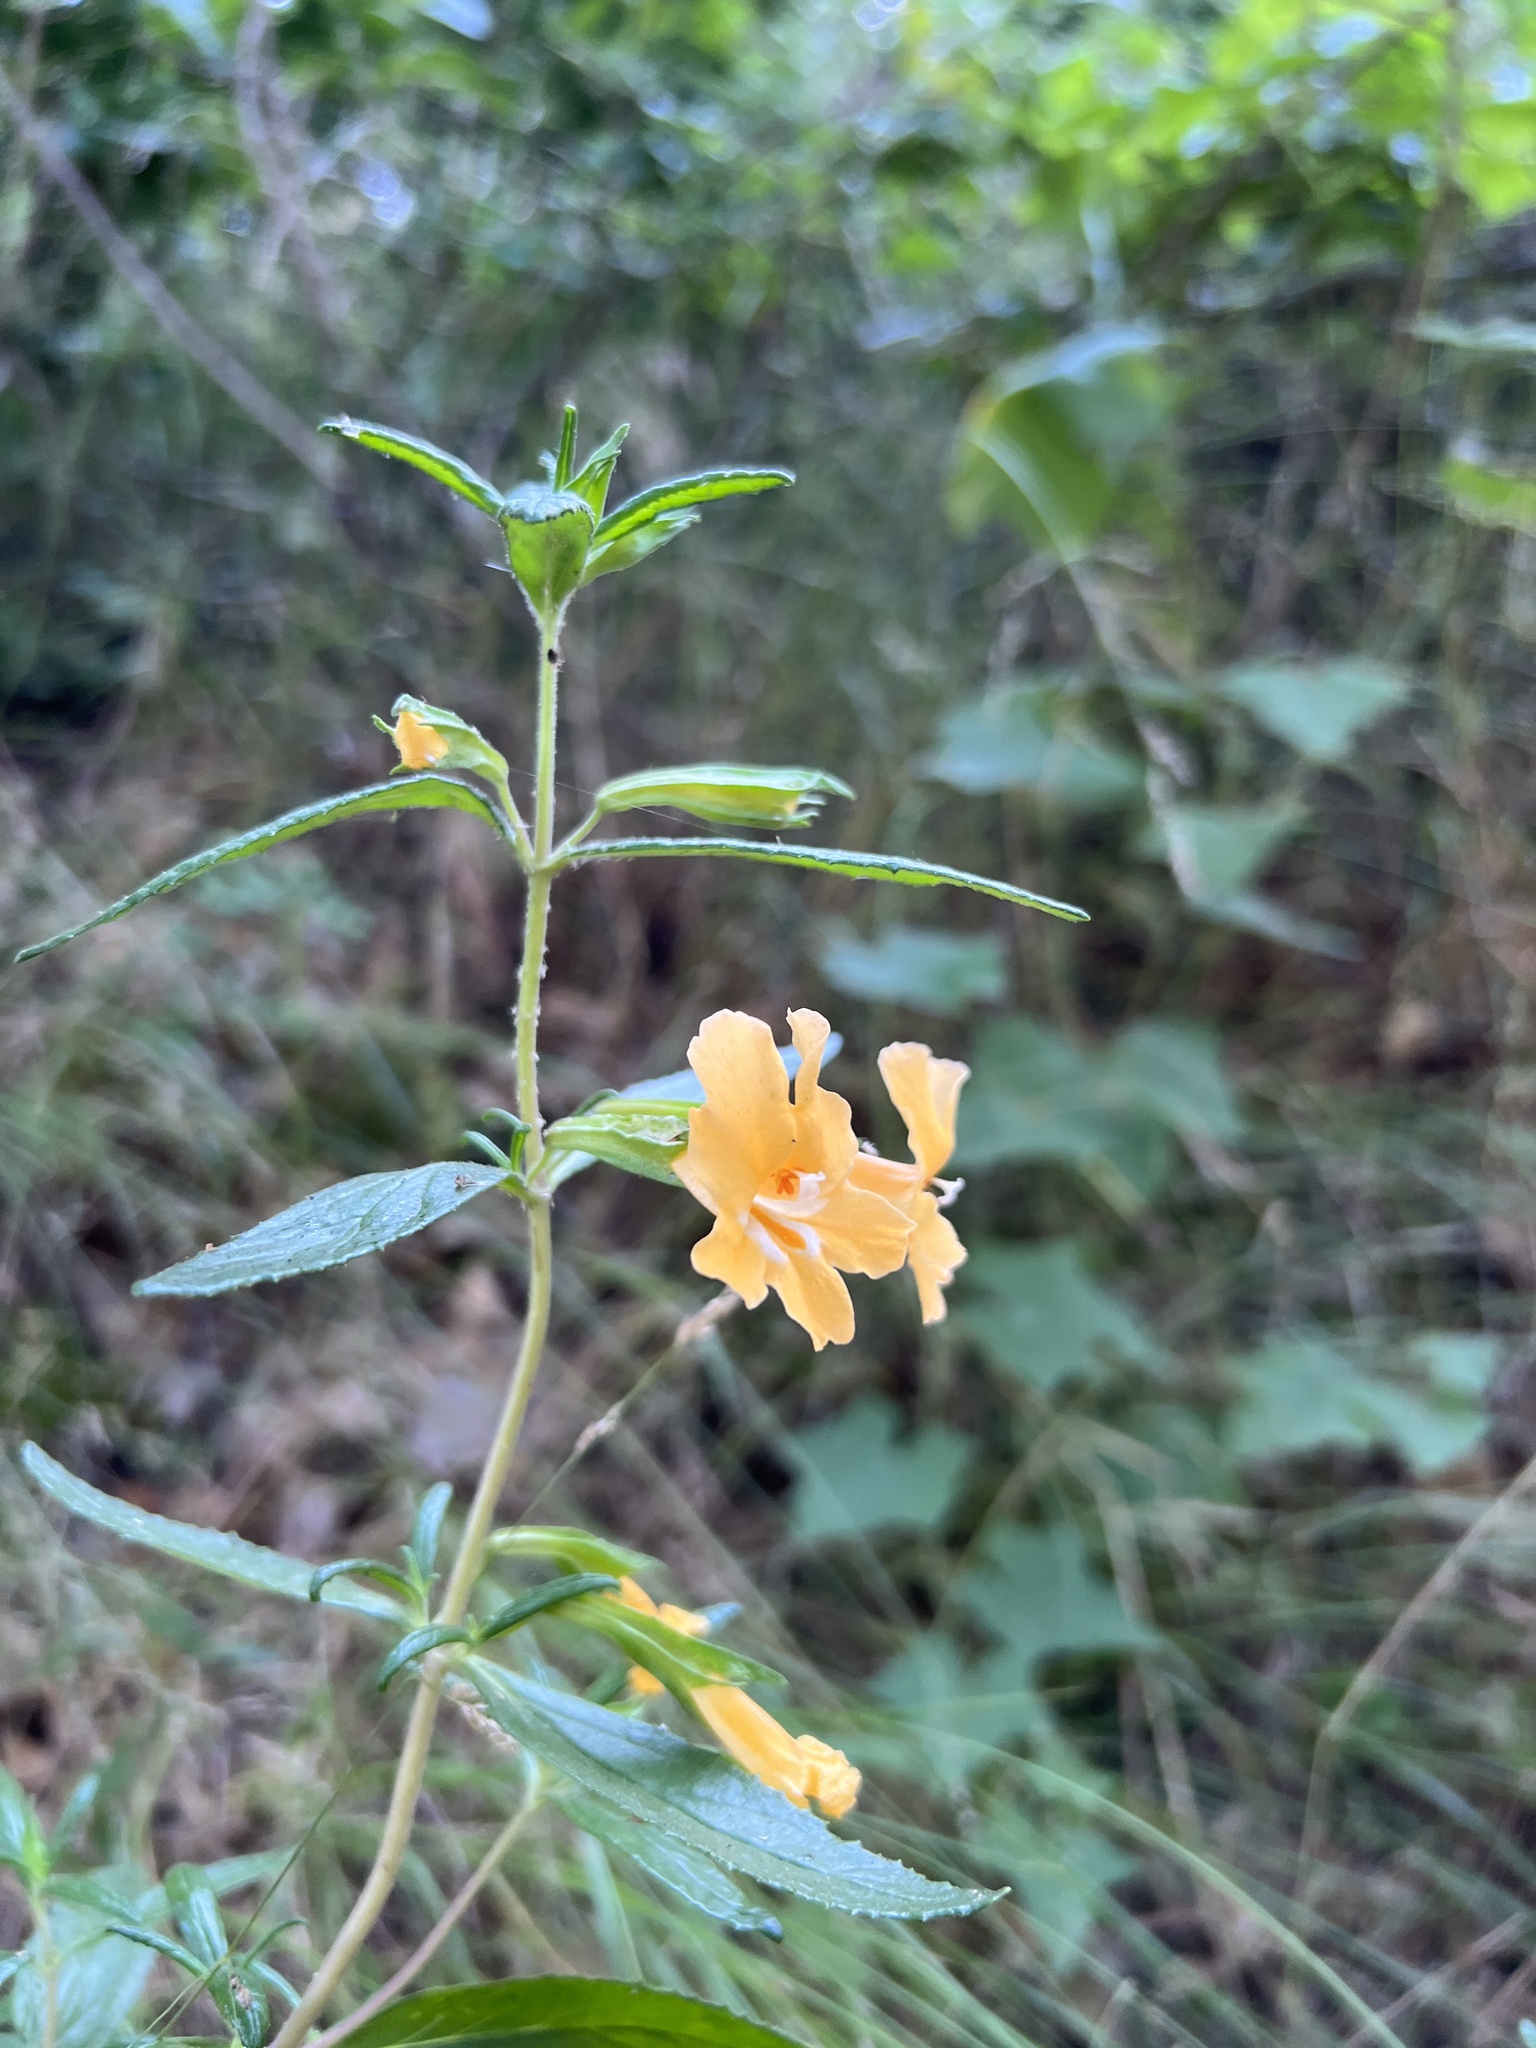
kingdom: Plantae
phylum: Tracheophyta
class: Magnoliopsida
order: Lamiales
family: Phrymaceae
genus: Diplacus
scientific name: Diplacus aurantiacus
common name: Bush monkey-flower
